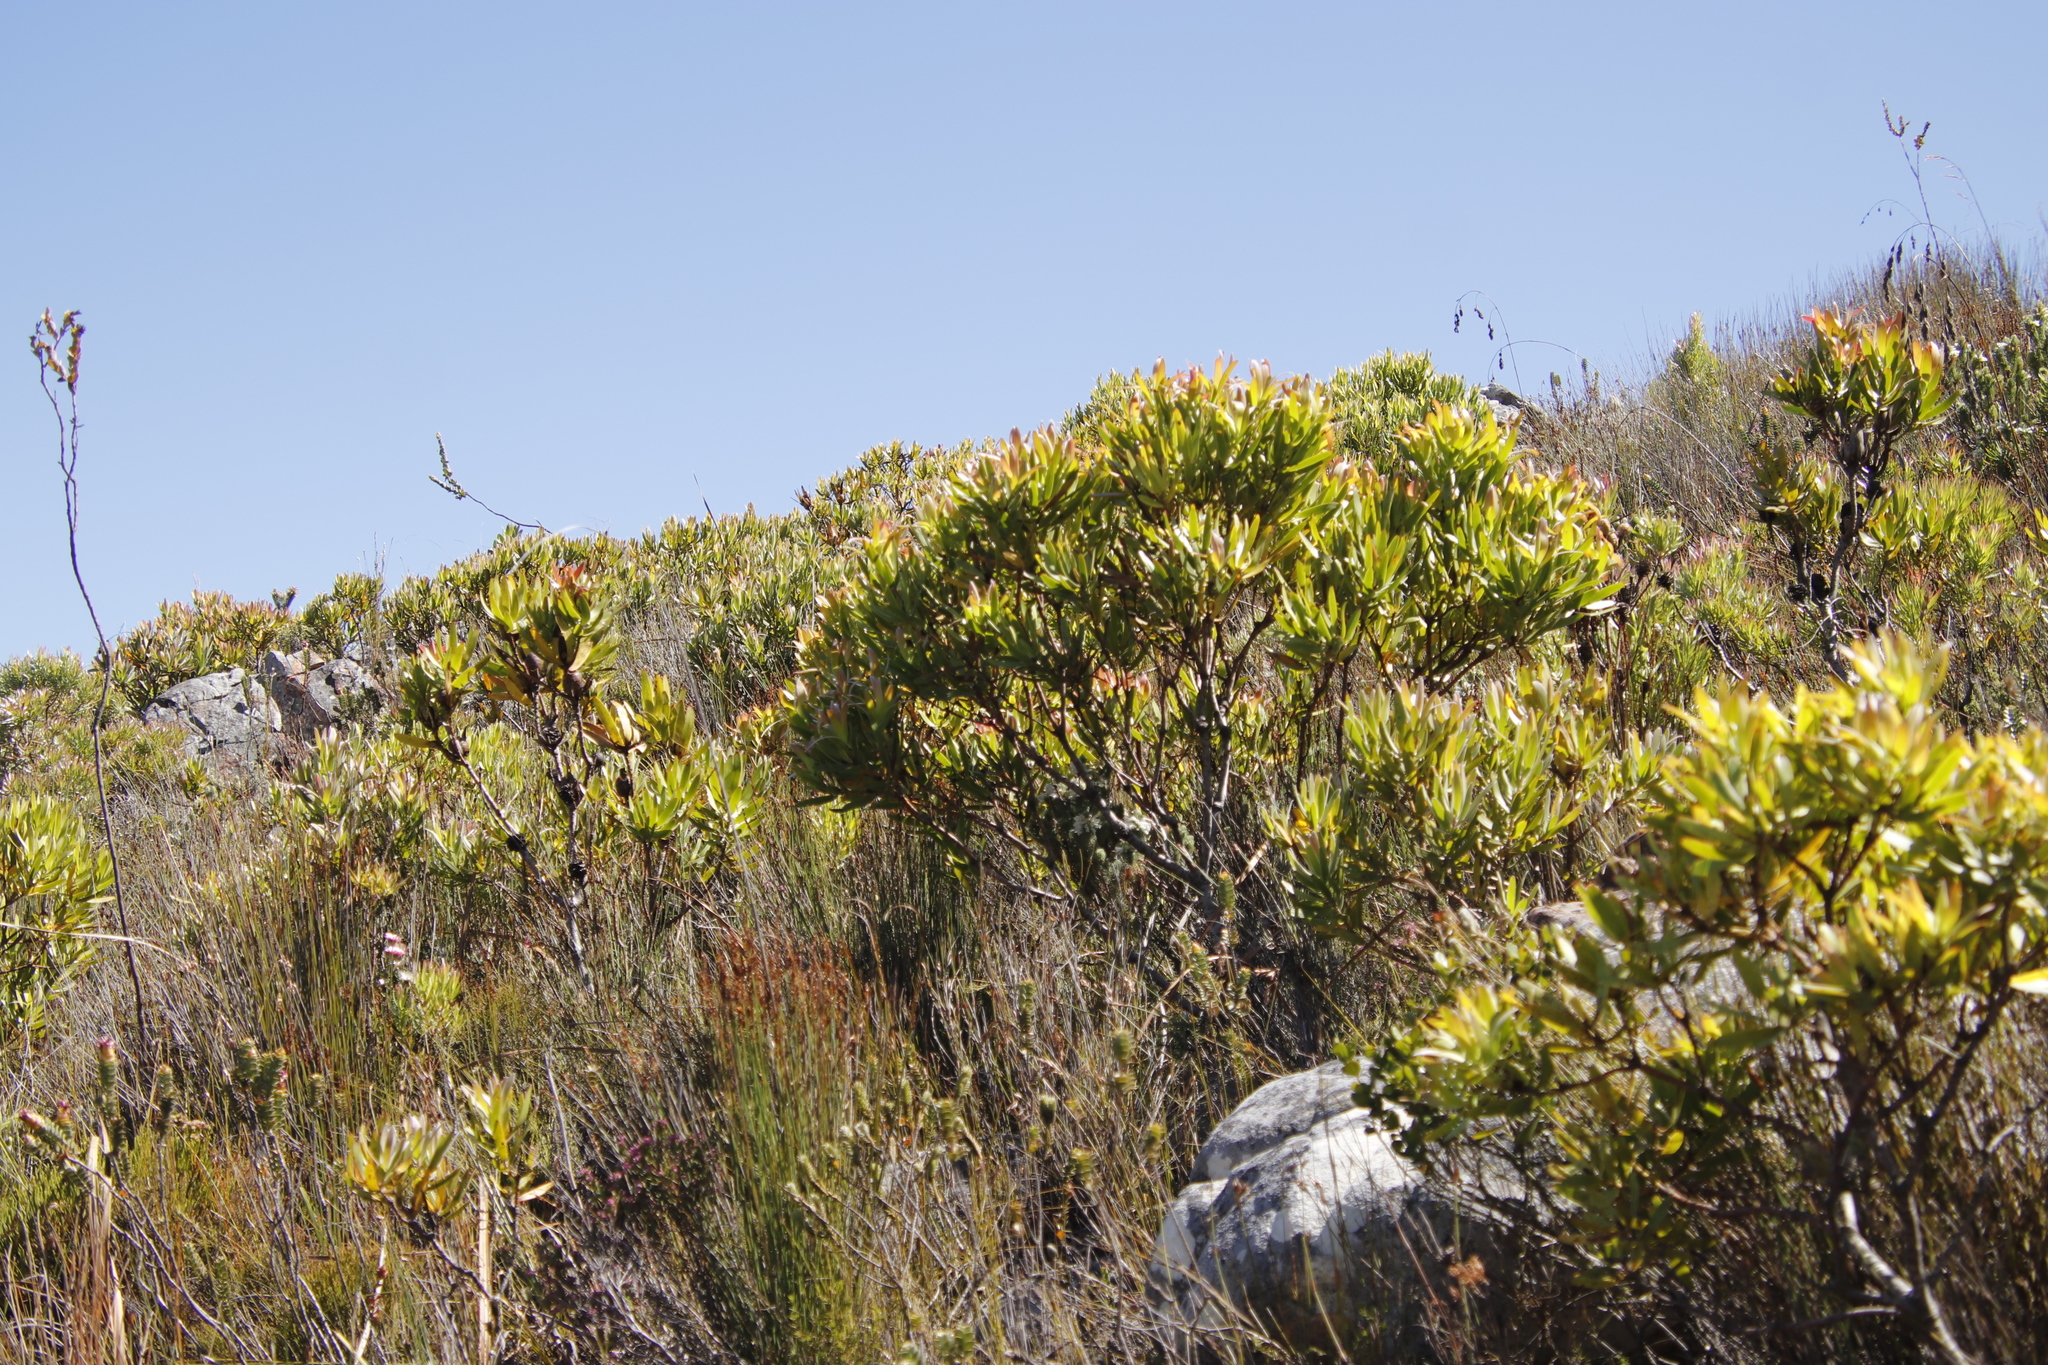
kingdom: Plantae
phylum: Tracheophyta
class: Magnoliopsida
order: Proteales
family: Proteaceae
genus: Leucadendron
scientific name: Leucadendron laureolum
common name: Golden sunshinebush
